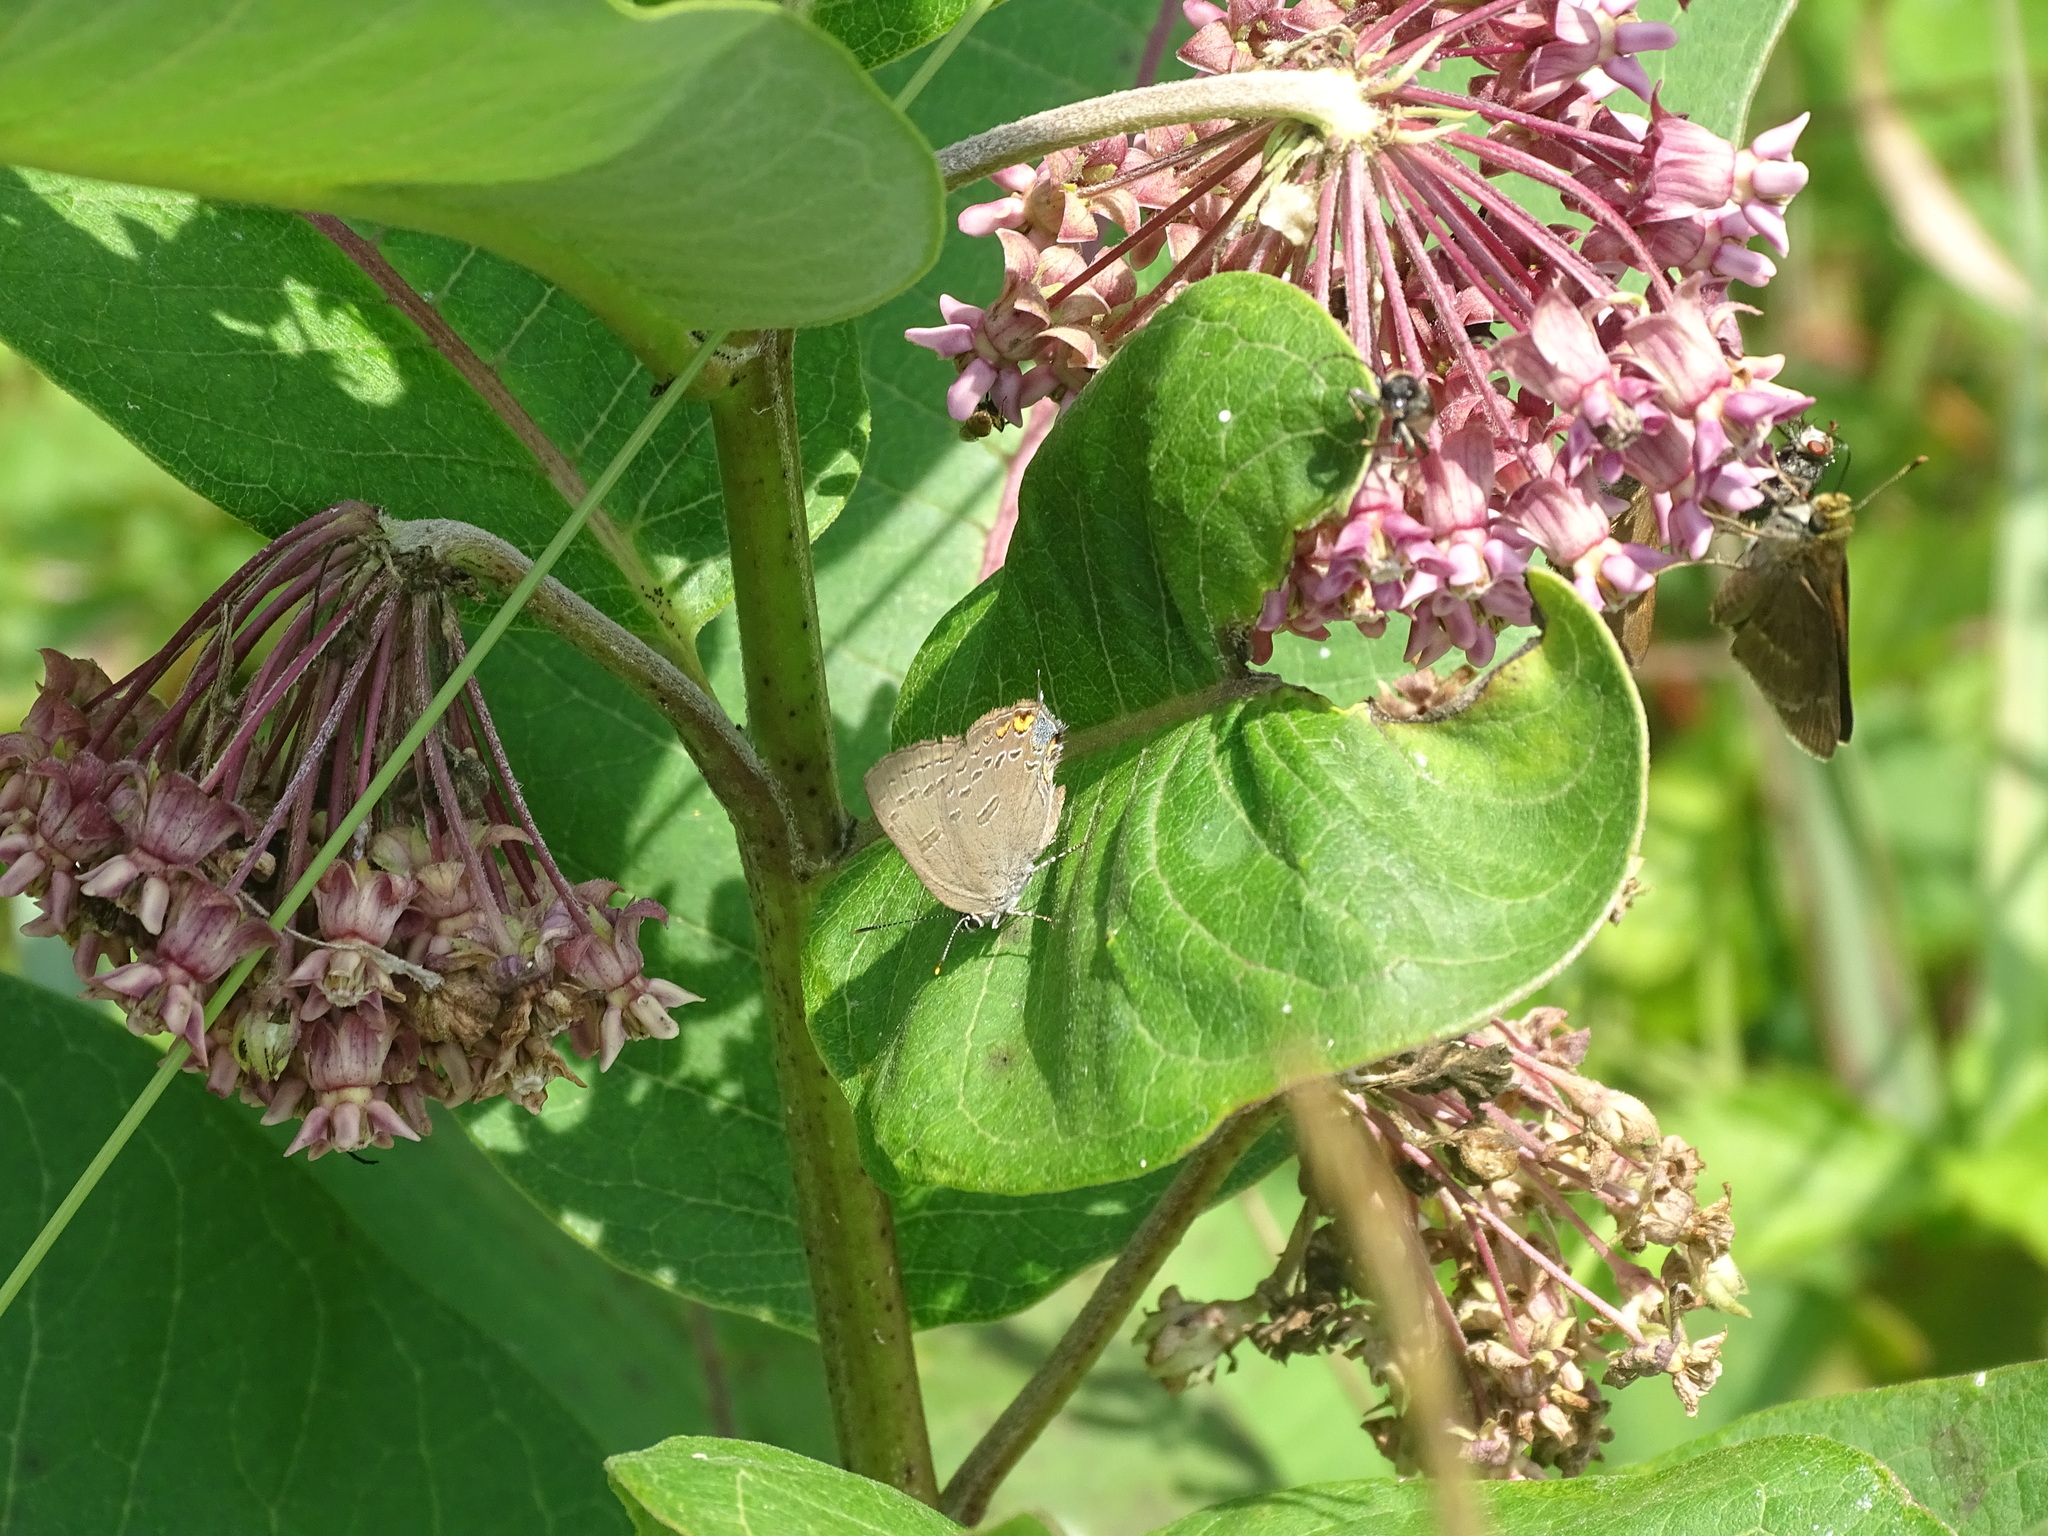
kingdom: Animalia
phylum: Arthropoda
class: Insecta
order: Lepidoptera
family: Lycaenidae
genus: Satyrium
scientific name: Satyrium edwardsii
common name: Edwards' hairstreak
